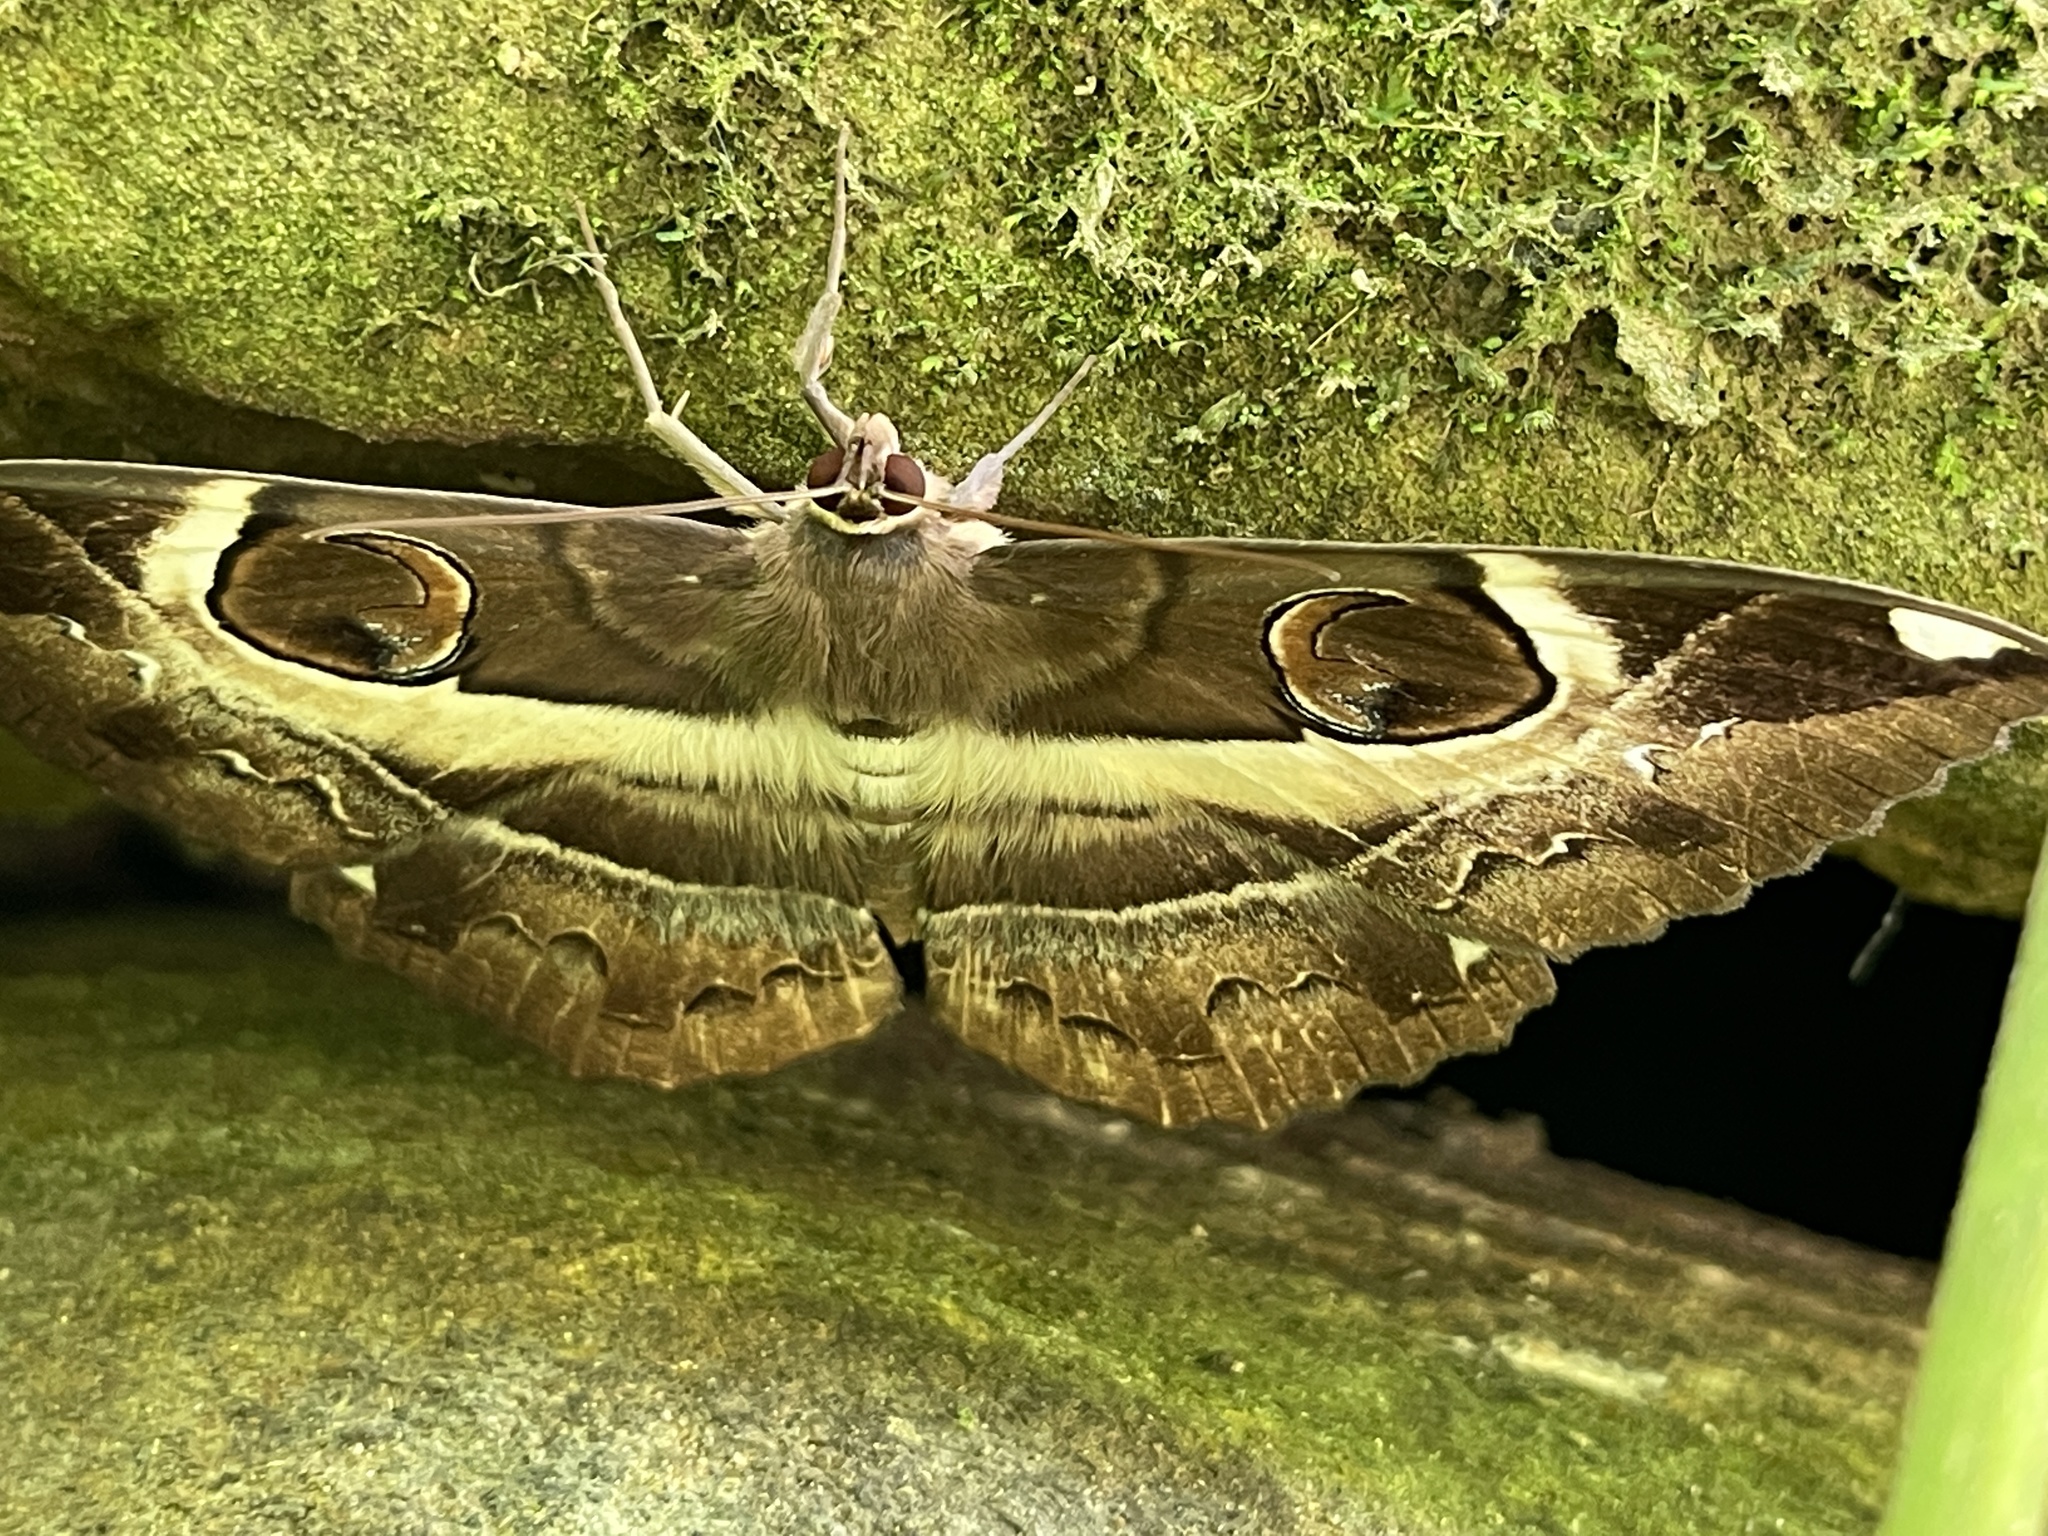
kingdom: Animalia
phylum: Arthropoda
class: Insecta
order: Lepidoptera
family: Erebidae
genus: Erebus
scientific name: Erebus ephesperis
